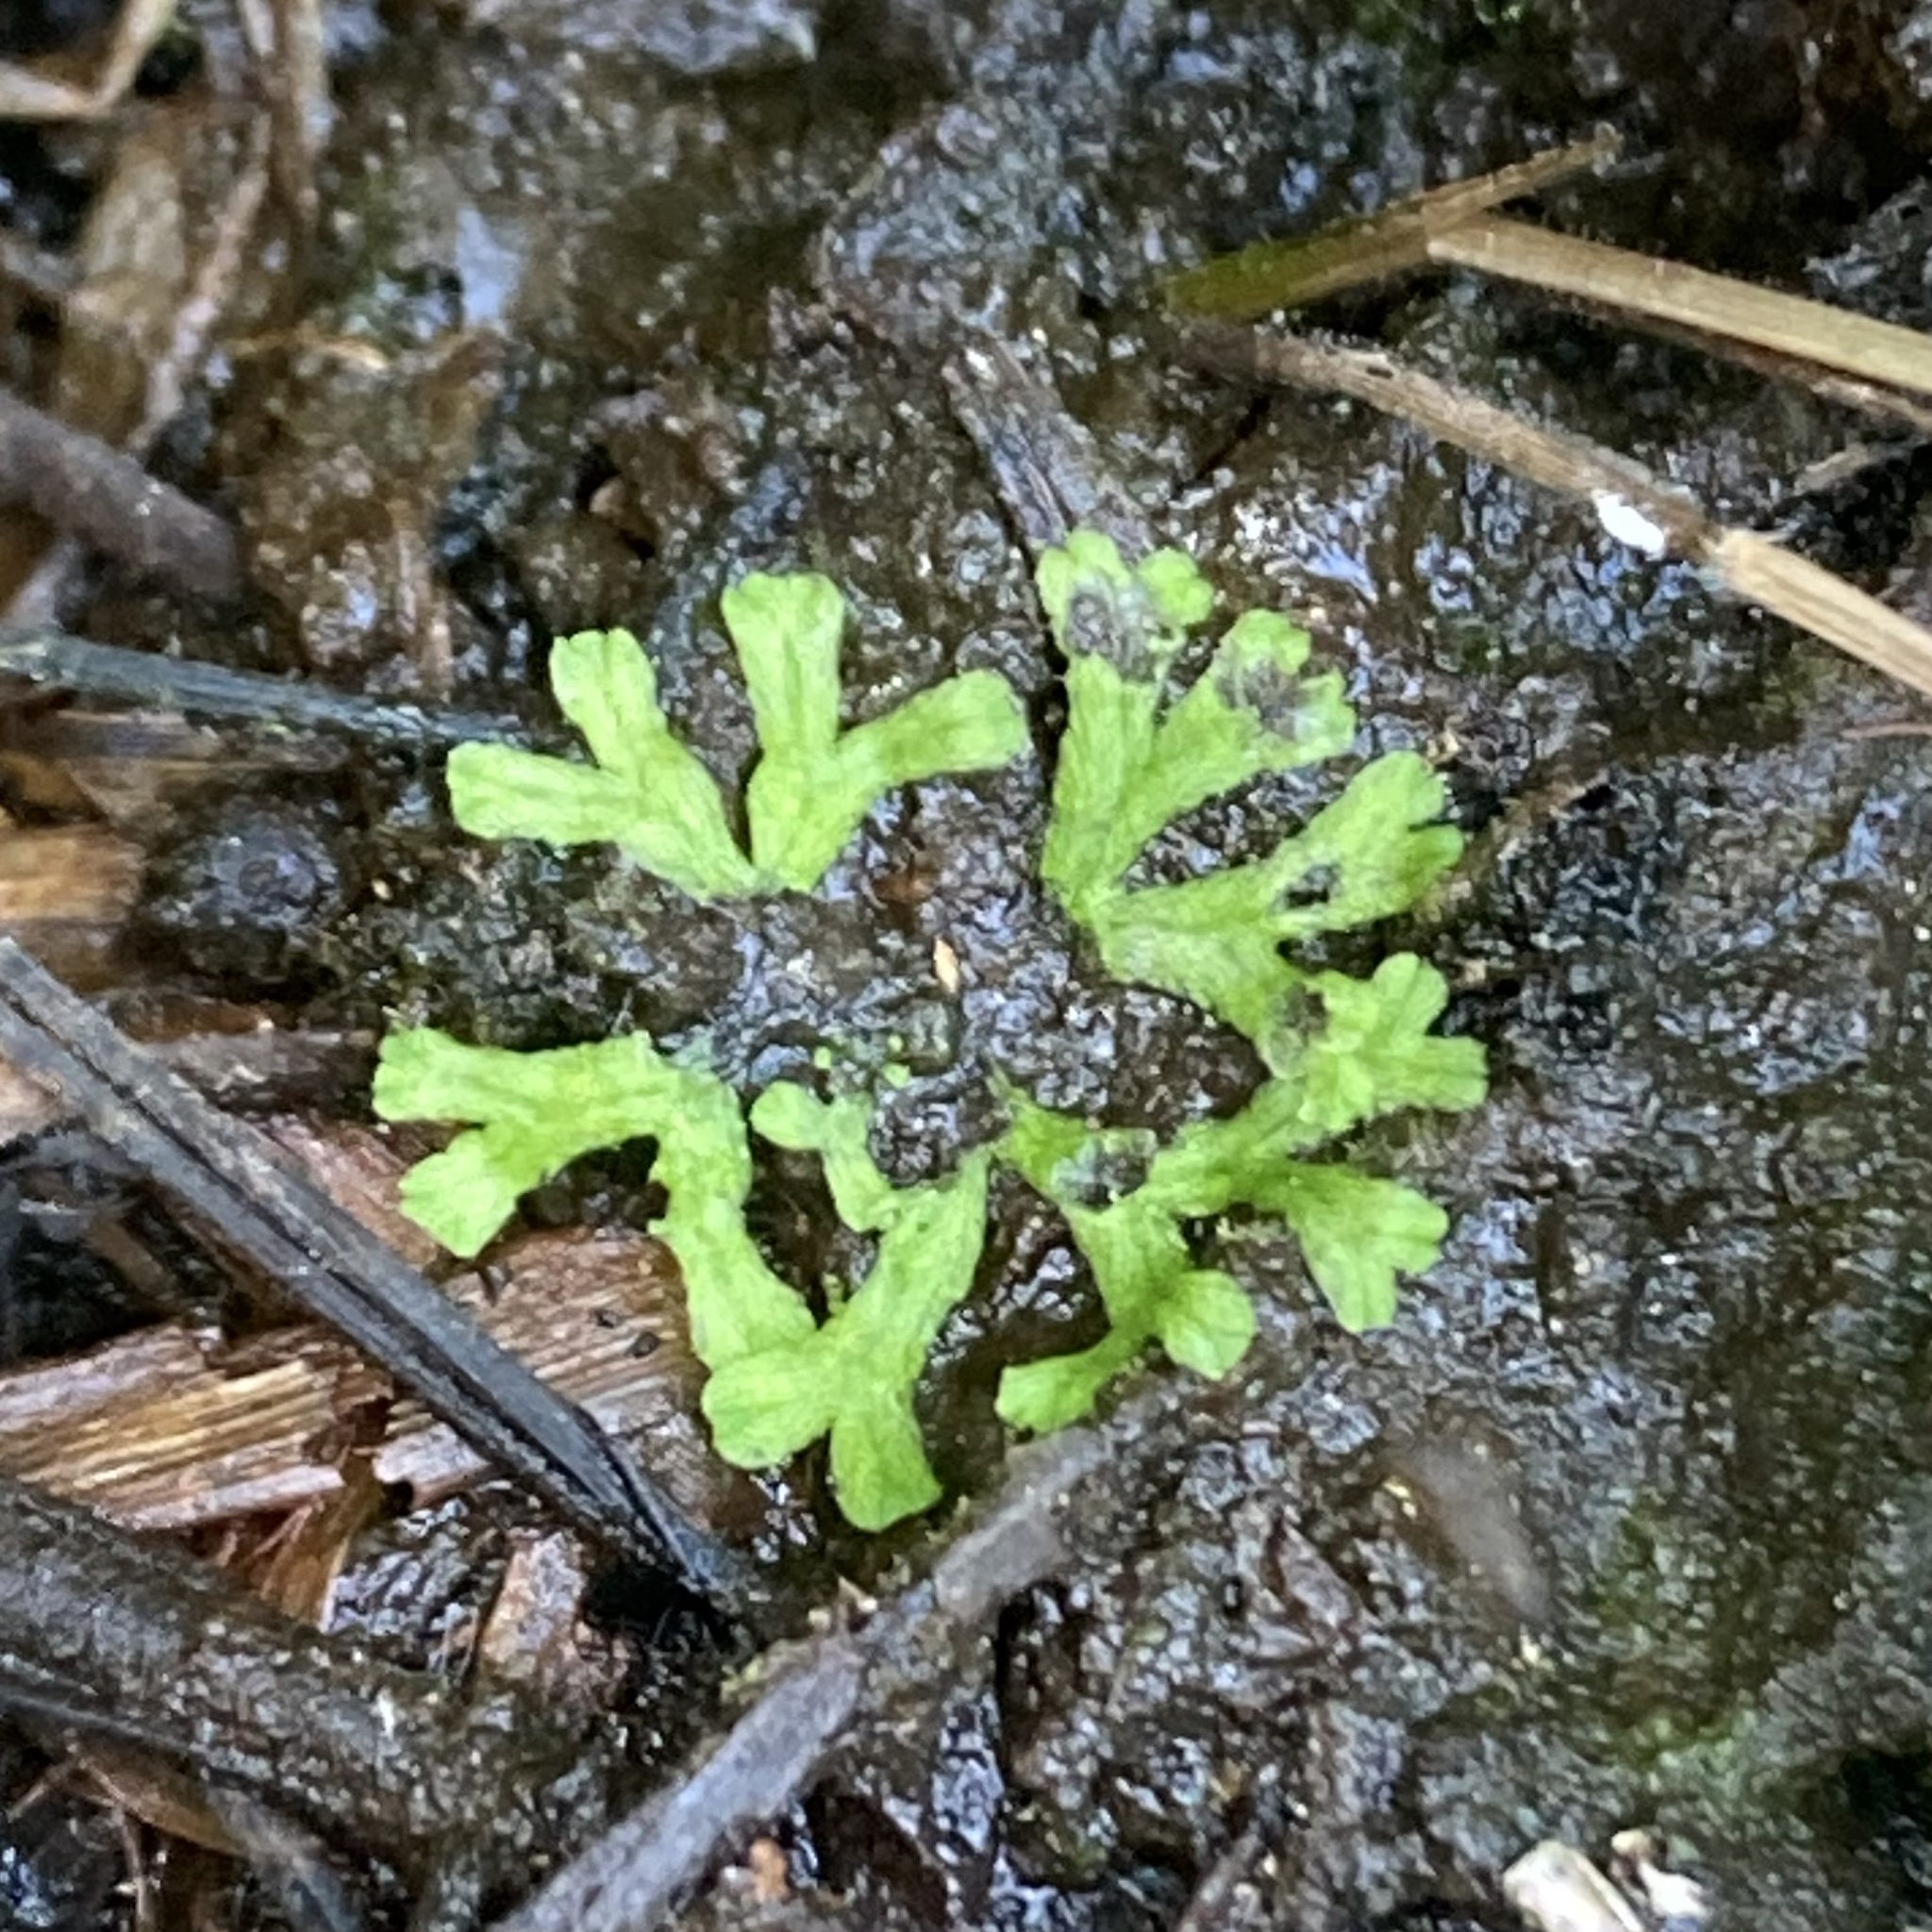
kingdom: Plantae
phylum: Marchantiophyta
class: Marchantiopsida
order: Marchantiales
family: Ricciaceae
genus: Ricciocarpos
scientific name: Ricciocarpos natans
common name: Purple-fringed liverwort
